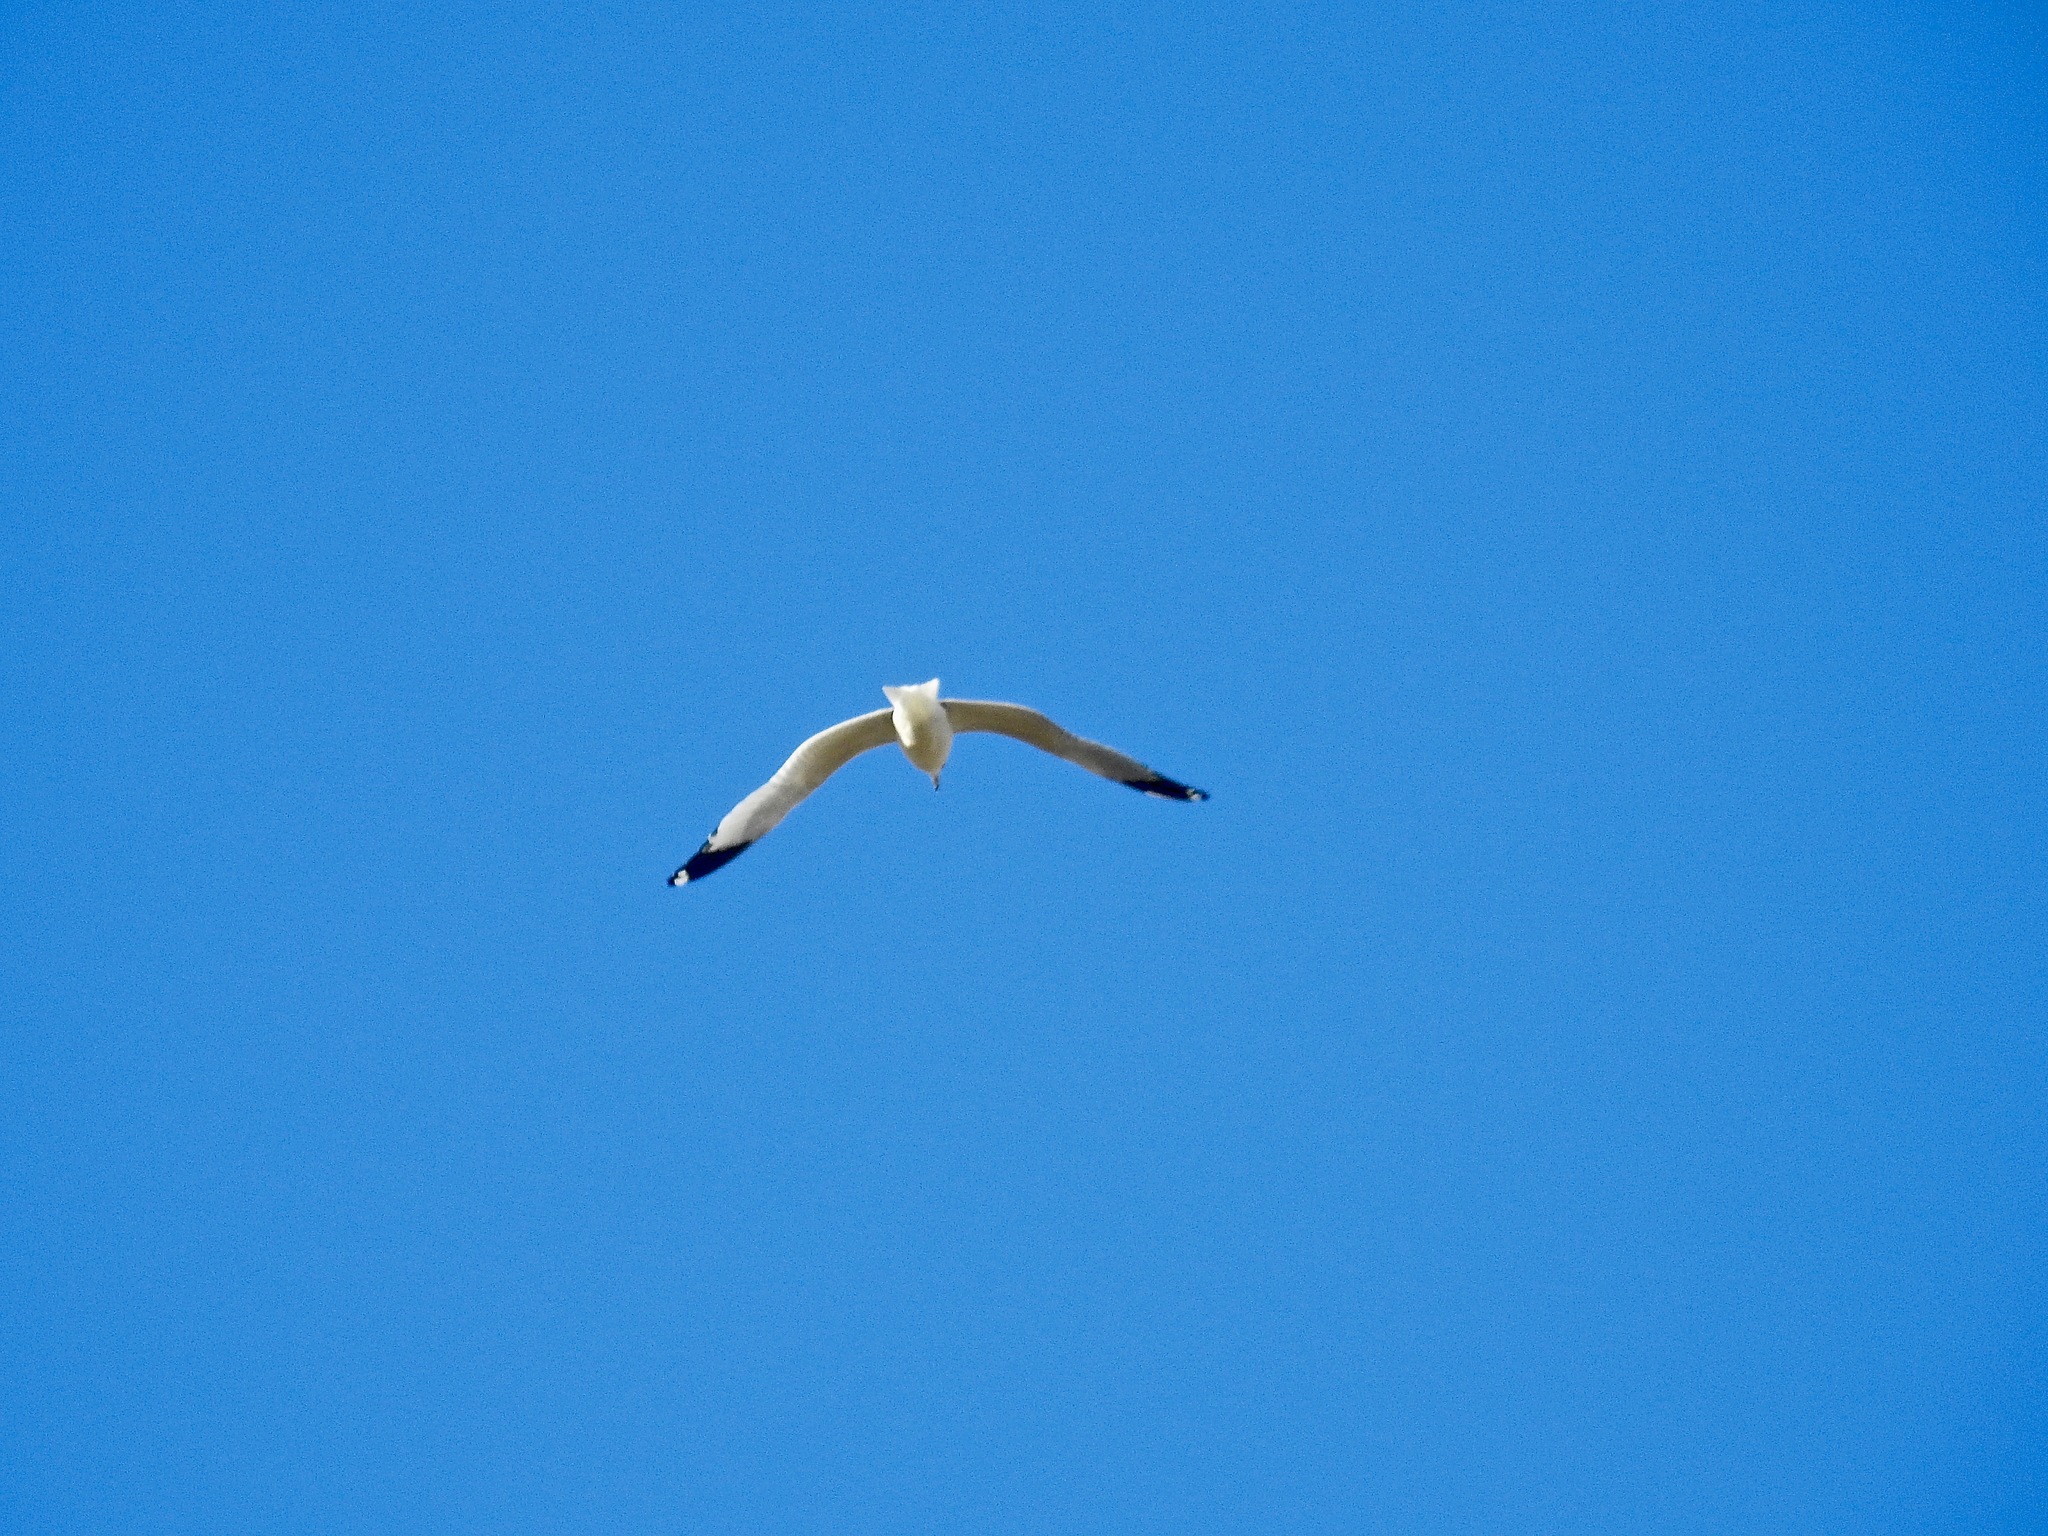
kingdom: Animalia
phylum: Chordata
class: Aves
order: Charadriiformes
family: Laridae
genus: Larus
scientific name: Larus delawarensis
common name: Ring-billed gull
